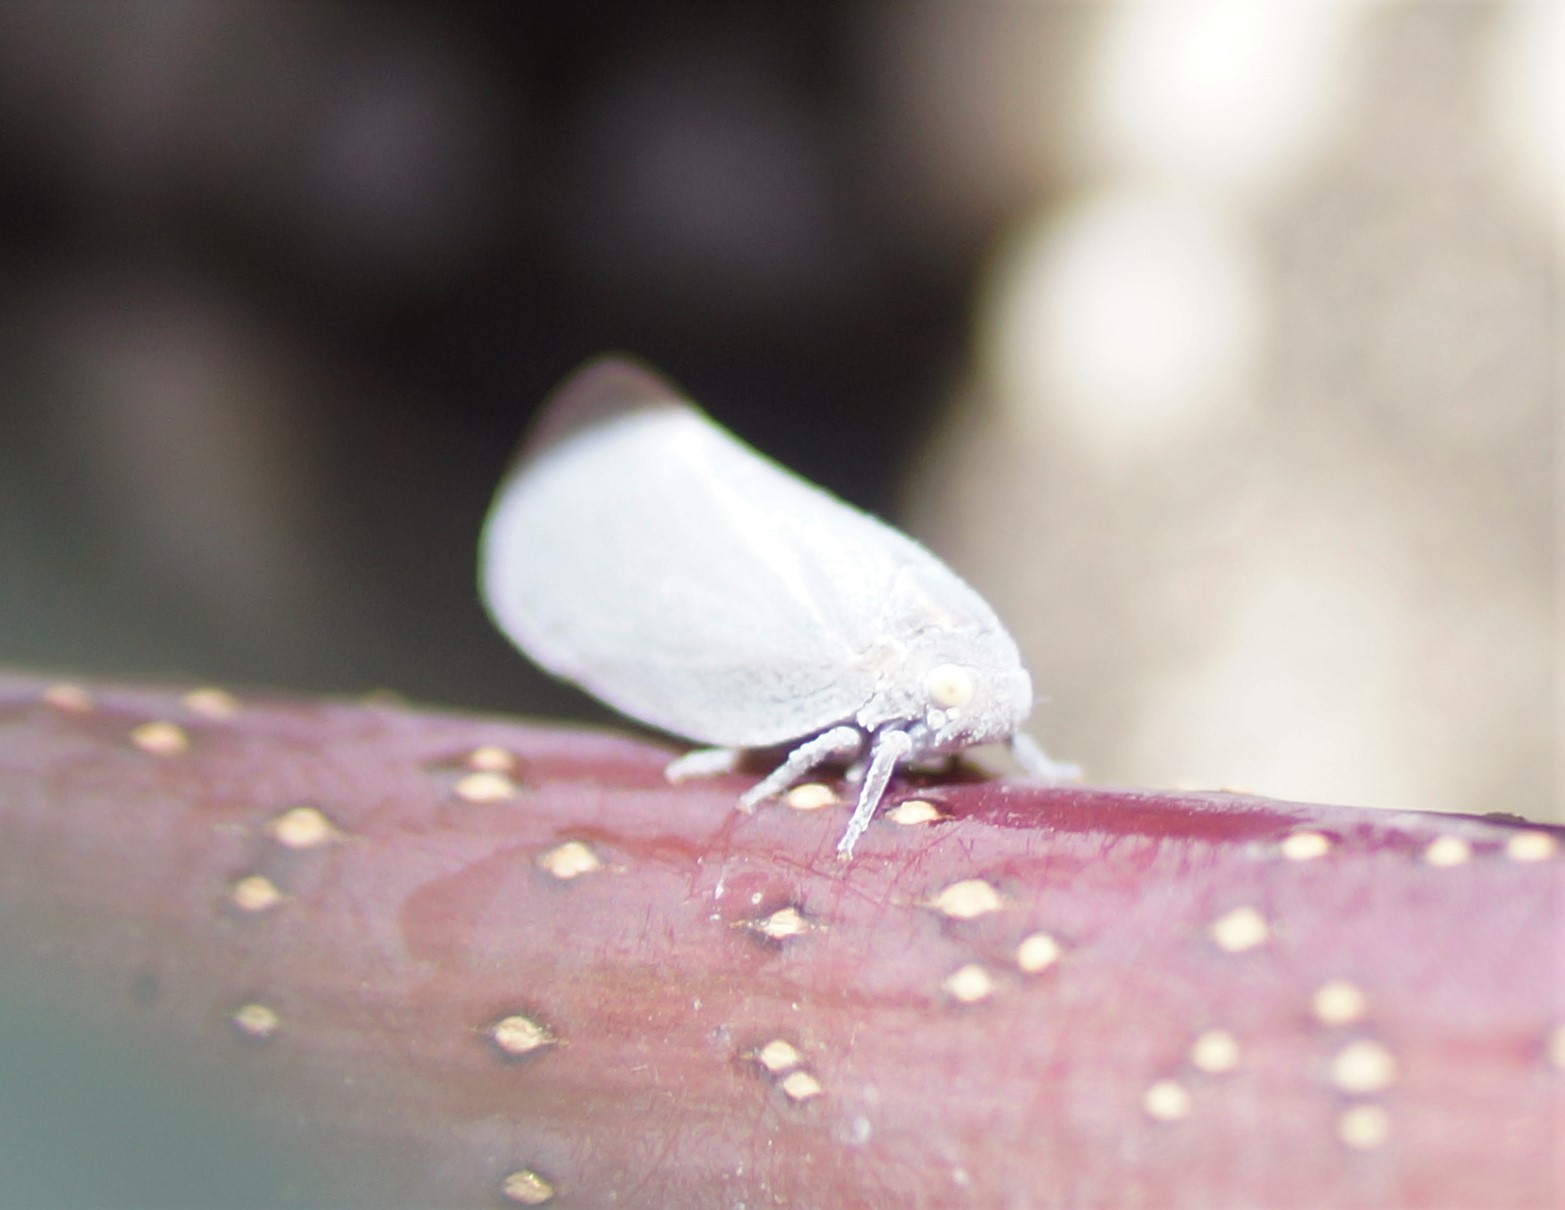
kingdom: Animalia
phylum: Arthropoda
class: Insecta
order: Hemiptera
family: Flatidae
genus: Anzora
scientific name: Anzora unicolor
